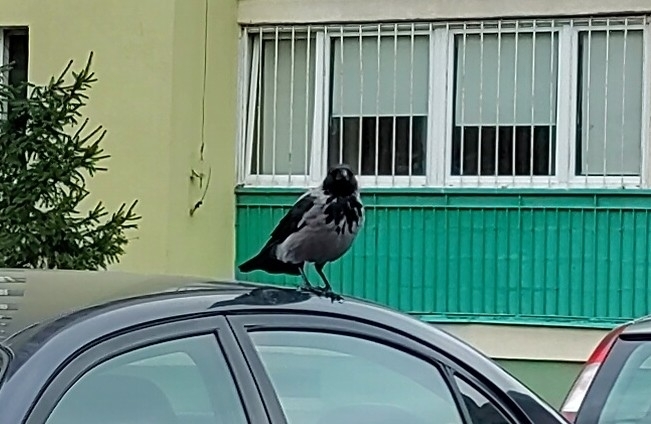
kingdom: Animalia
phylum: Chordata
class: Aves
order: Passeriformes
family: Corvidae
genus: Corvus
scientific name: Corvus cornix
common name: Hooded crow
